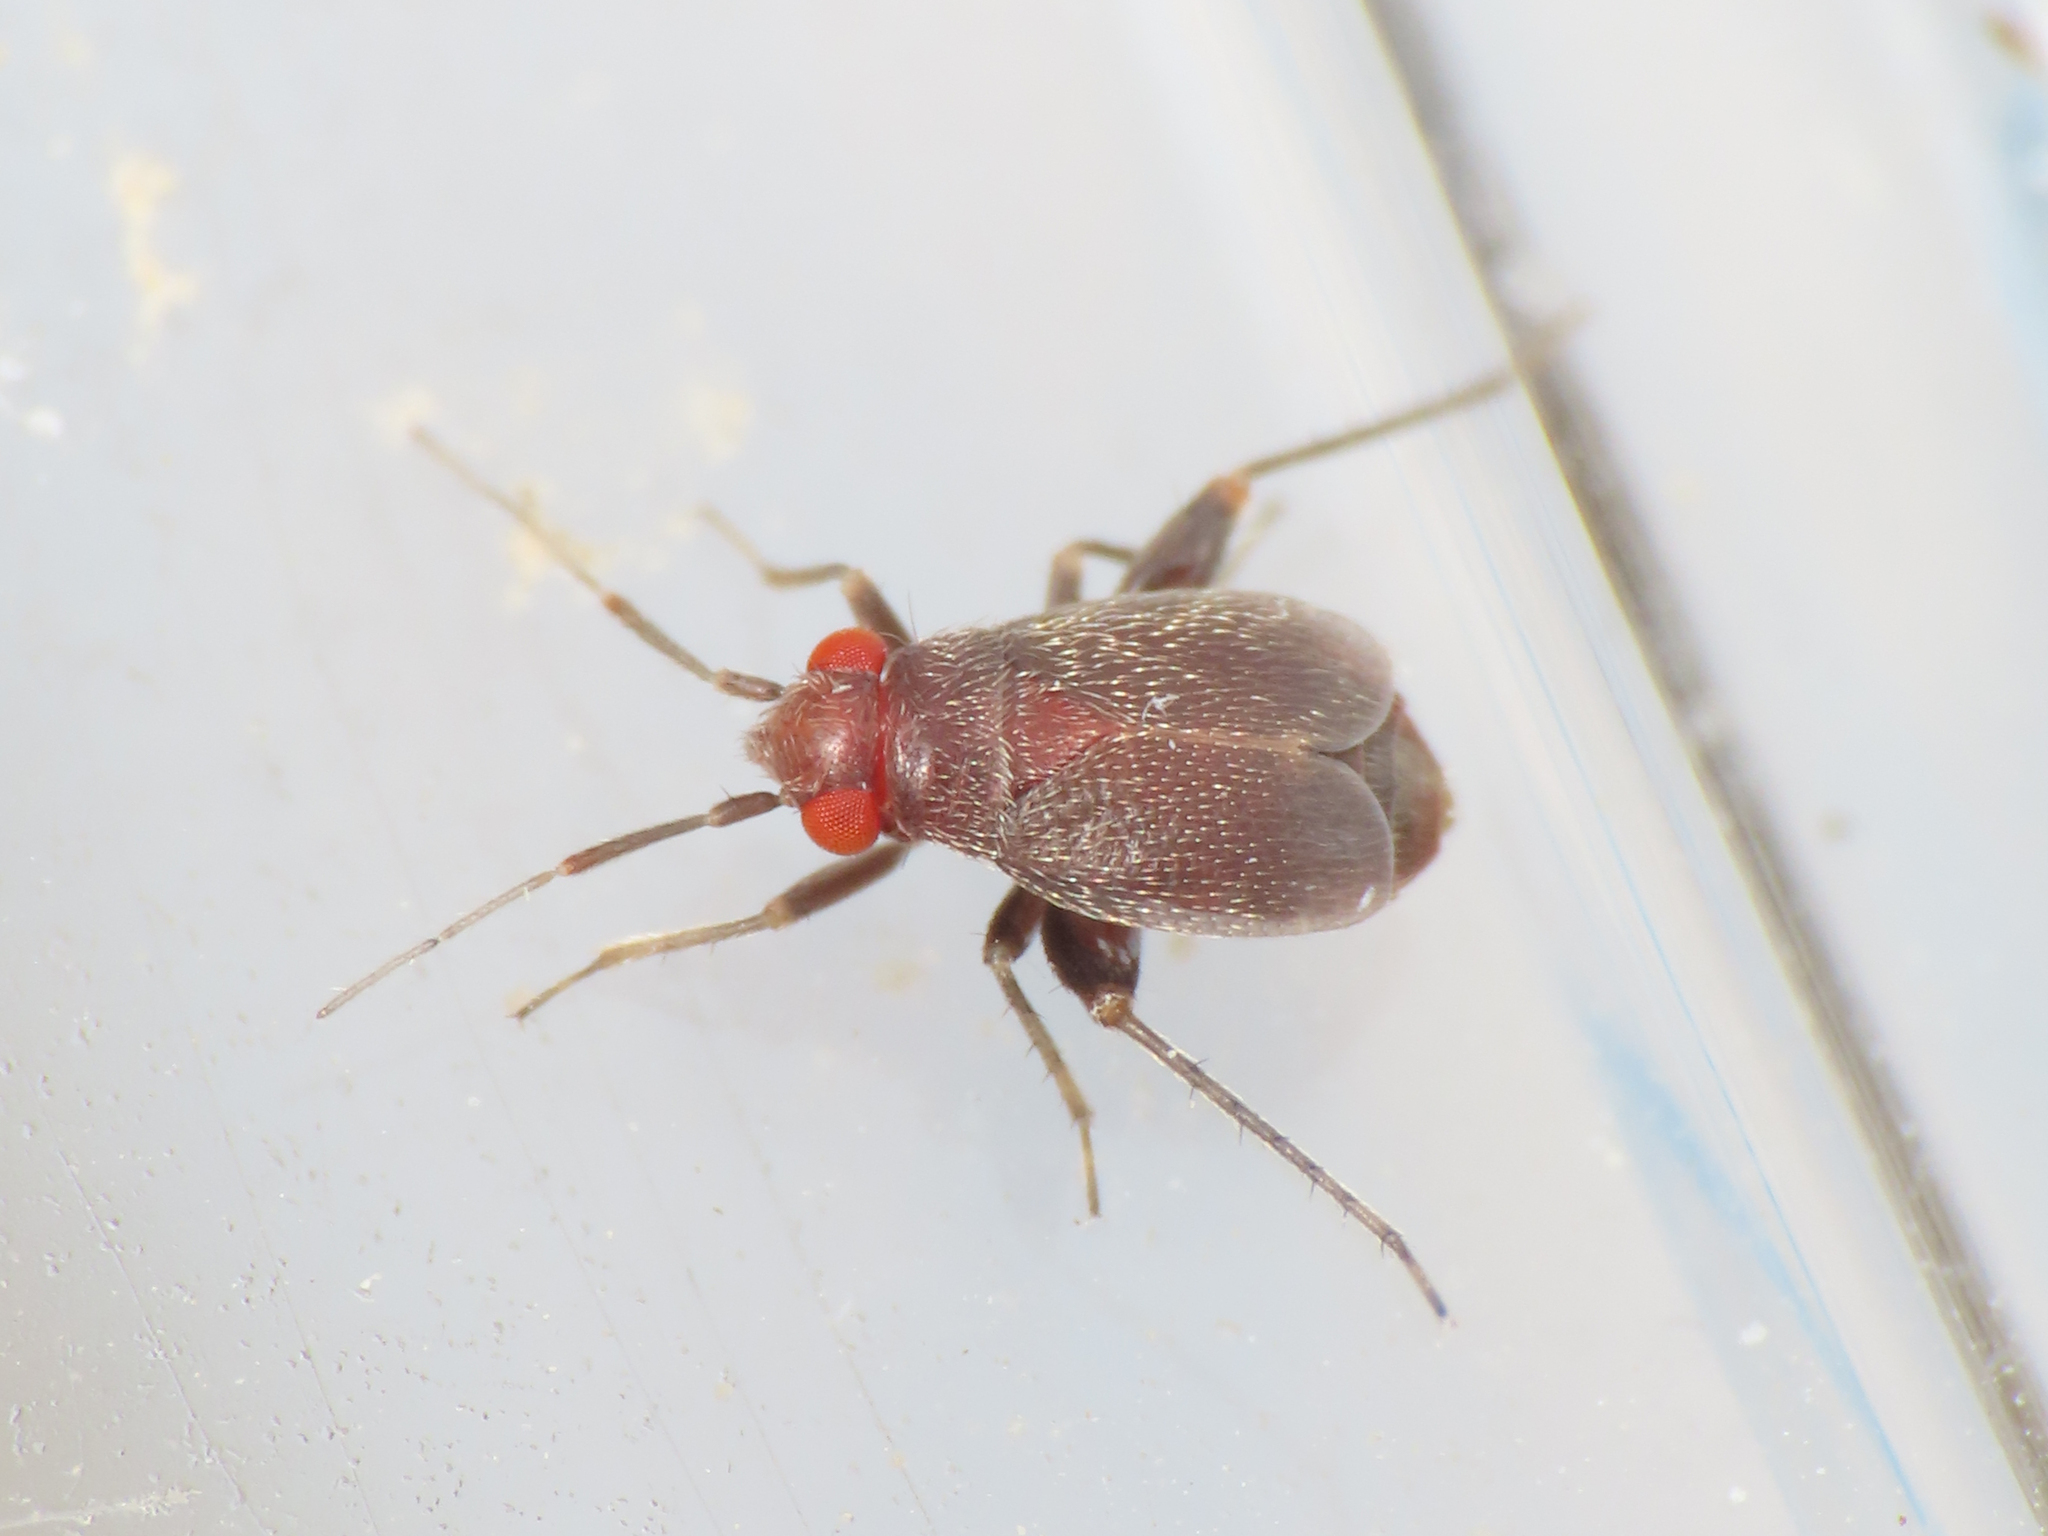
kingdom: Animalia
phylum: Arthropoda
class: Insecta
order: Hemiptera
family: Miridae
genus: Chlamydatus
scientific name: Chlamydatus evanescens
